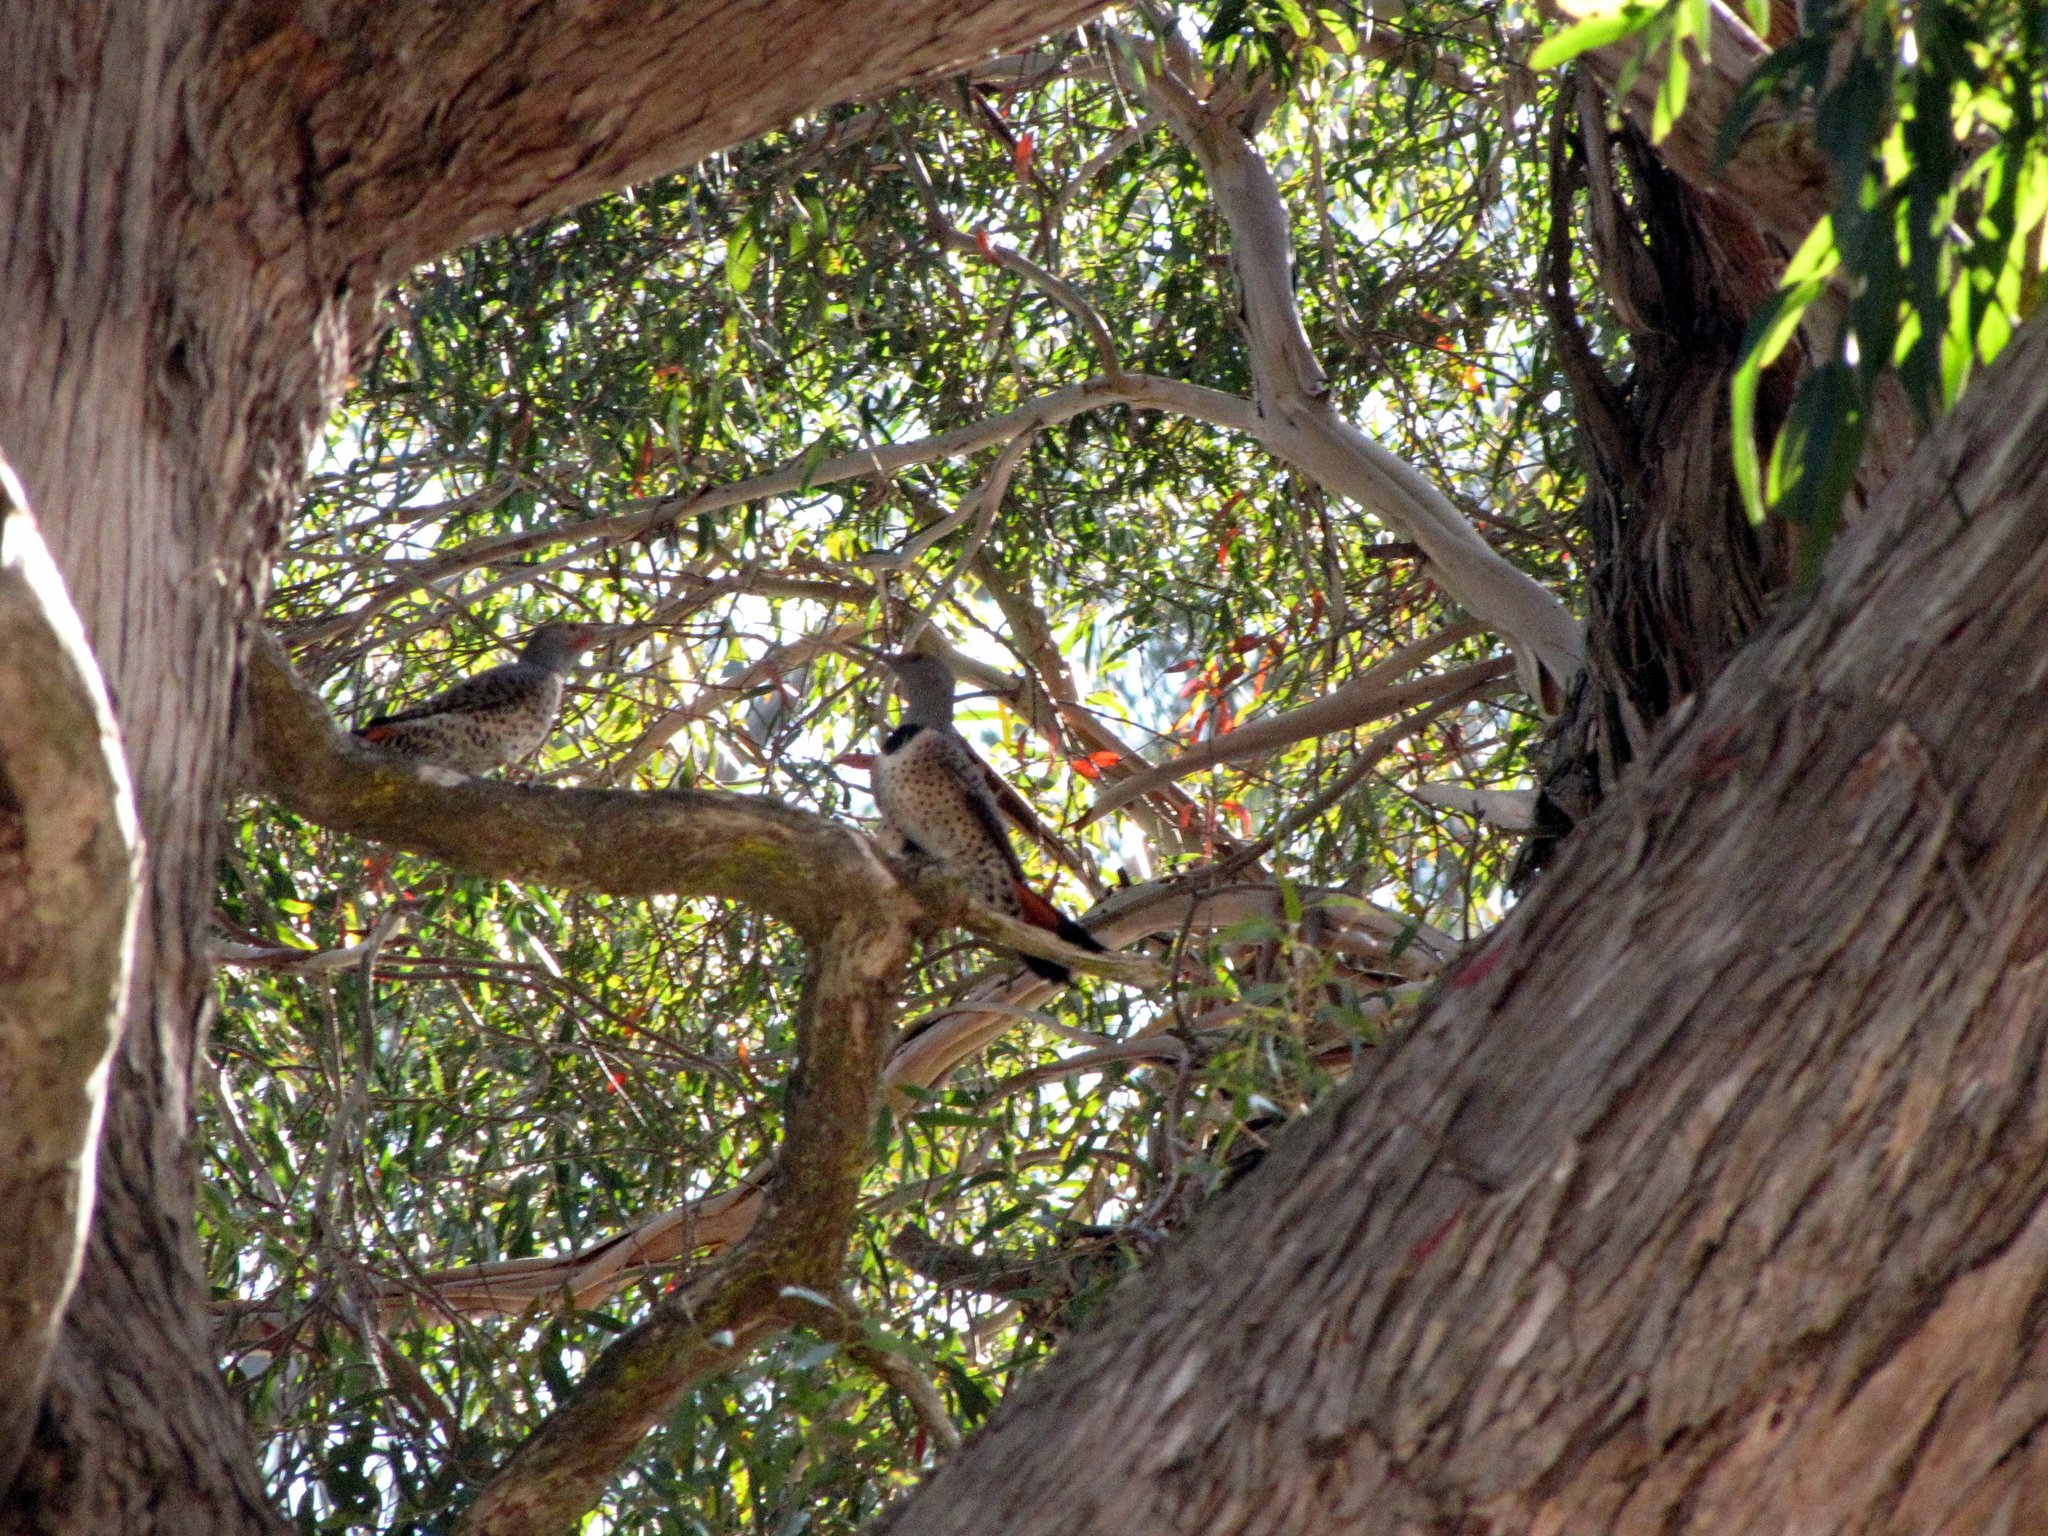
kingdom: Animalia
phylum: Chordata
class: Aves
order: Piciformes
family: Picidae
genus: Colaptes
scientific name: Colaptes auratus
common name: Northern flicker
